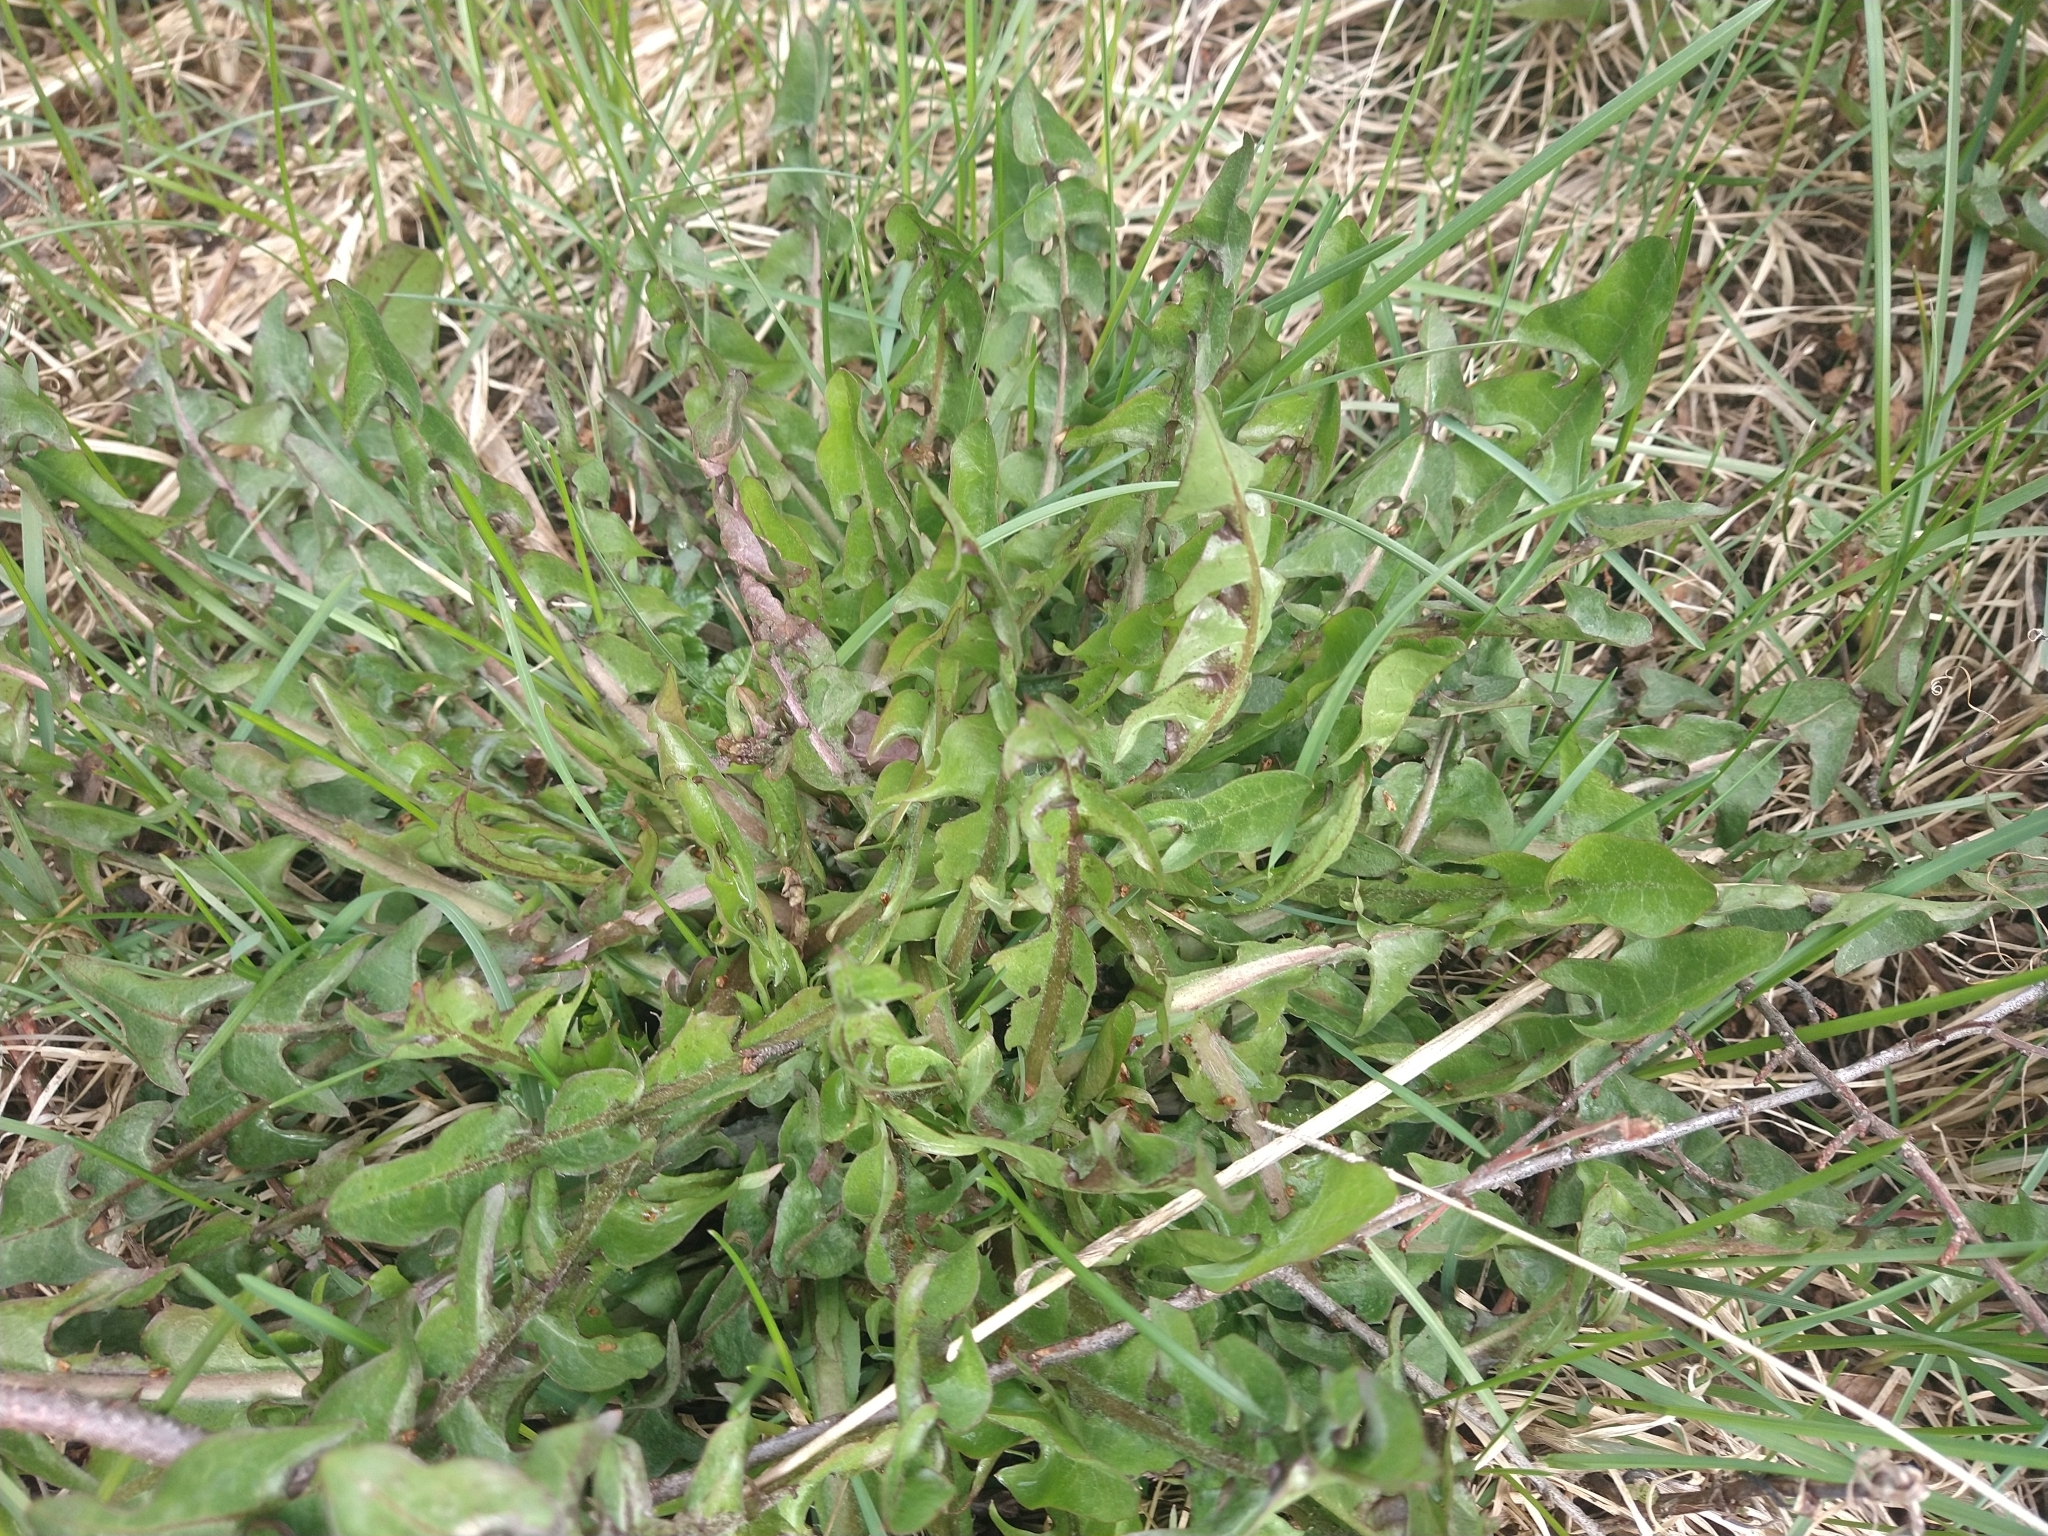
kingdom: Plantae
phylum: Tracheophyta
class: Magnoliopsida
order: Asterales
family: Asteraceae
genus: Taraxacum
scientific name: Taraxacum officinale
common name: Common dandelion
